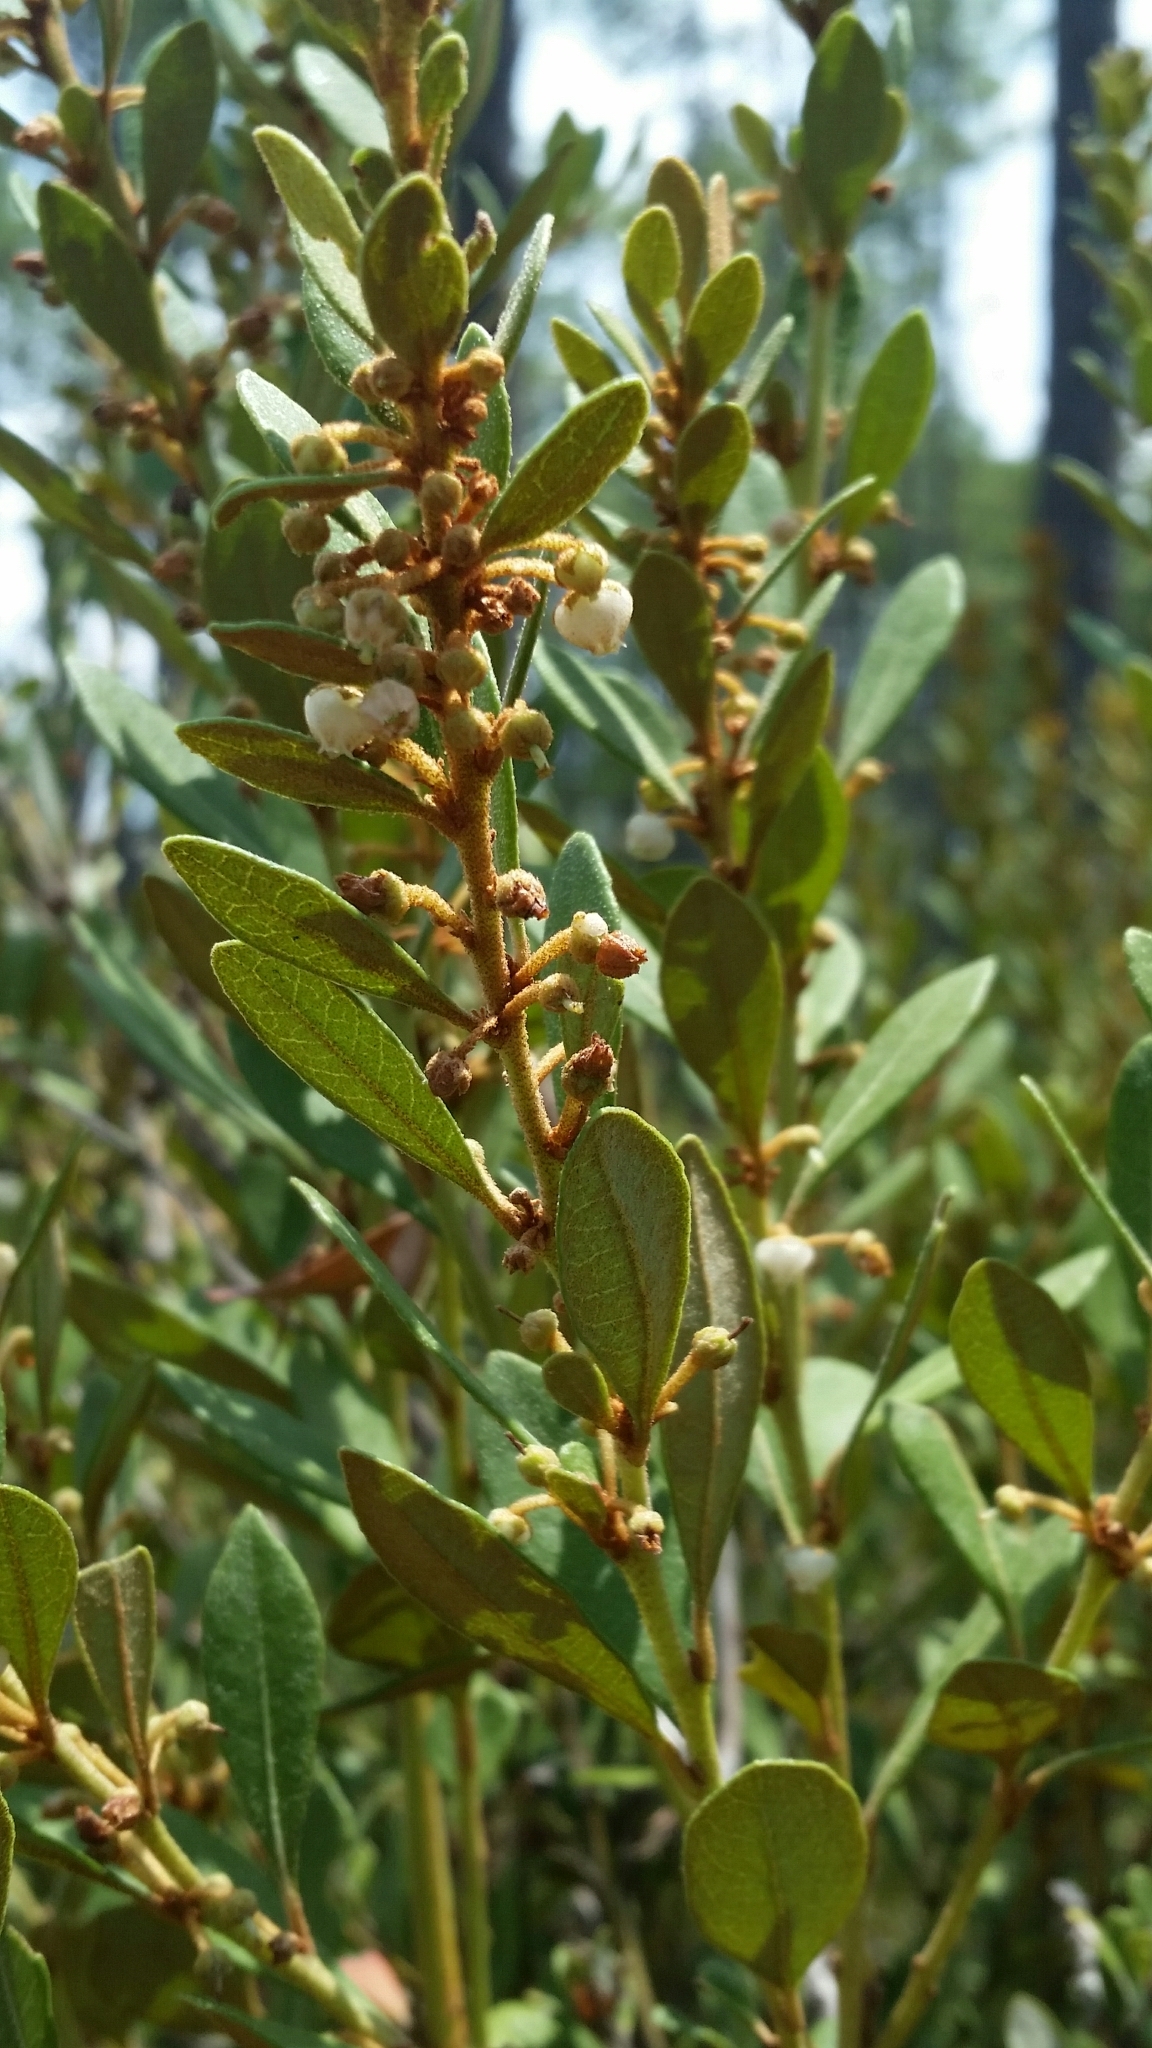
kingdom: Plantae
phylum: Tracheophyta
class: Magnoliopsida
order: Ericales
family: Ericaceae
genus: Lyonia
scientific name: Lyonia fruticosa
